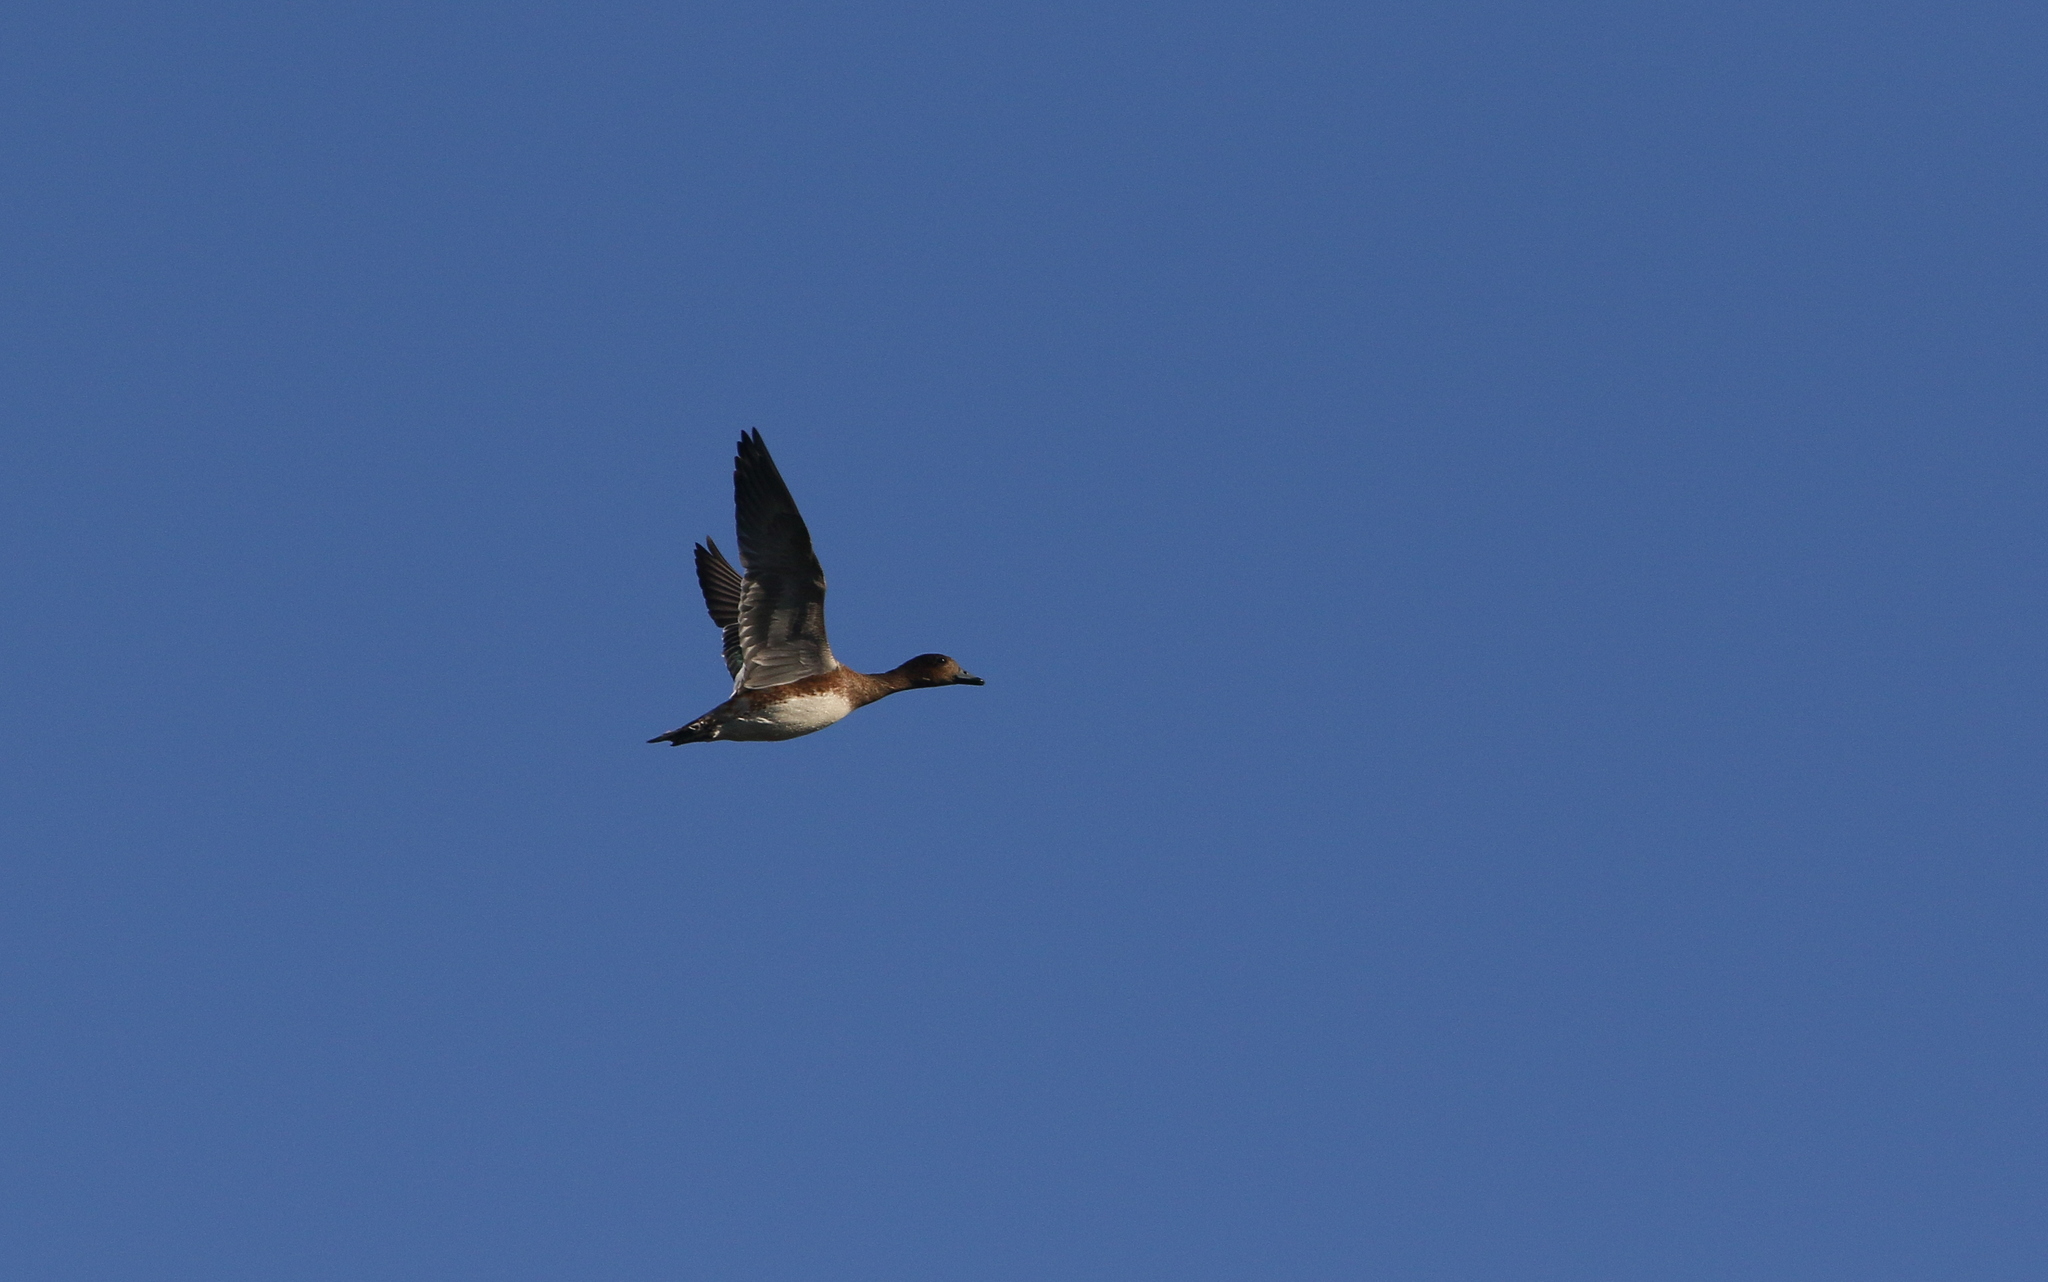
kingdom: Animalia
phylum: Chordata
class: Aves
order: Anseriformes
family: Anatidae
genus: Mareca
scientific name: Mareca penelope
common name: Eurasian wigeon
